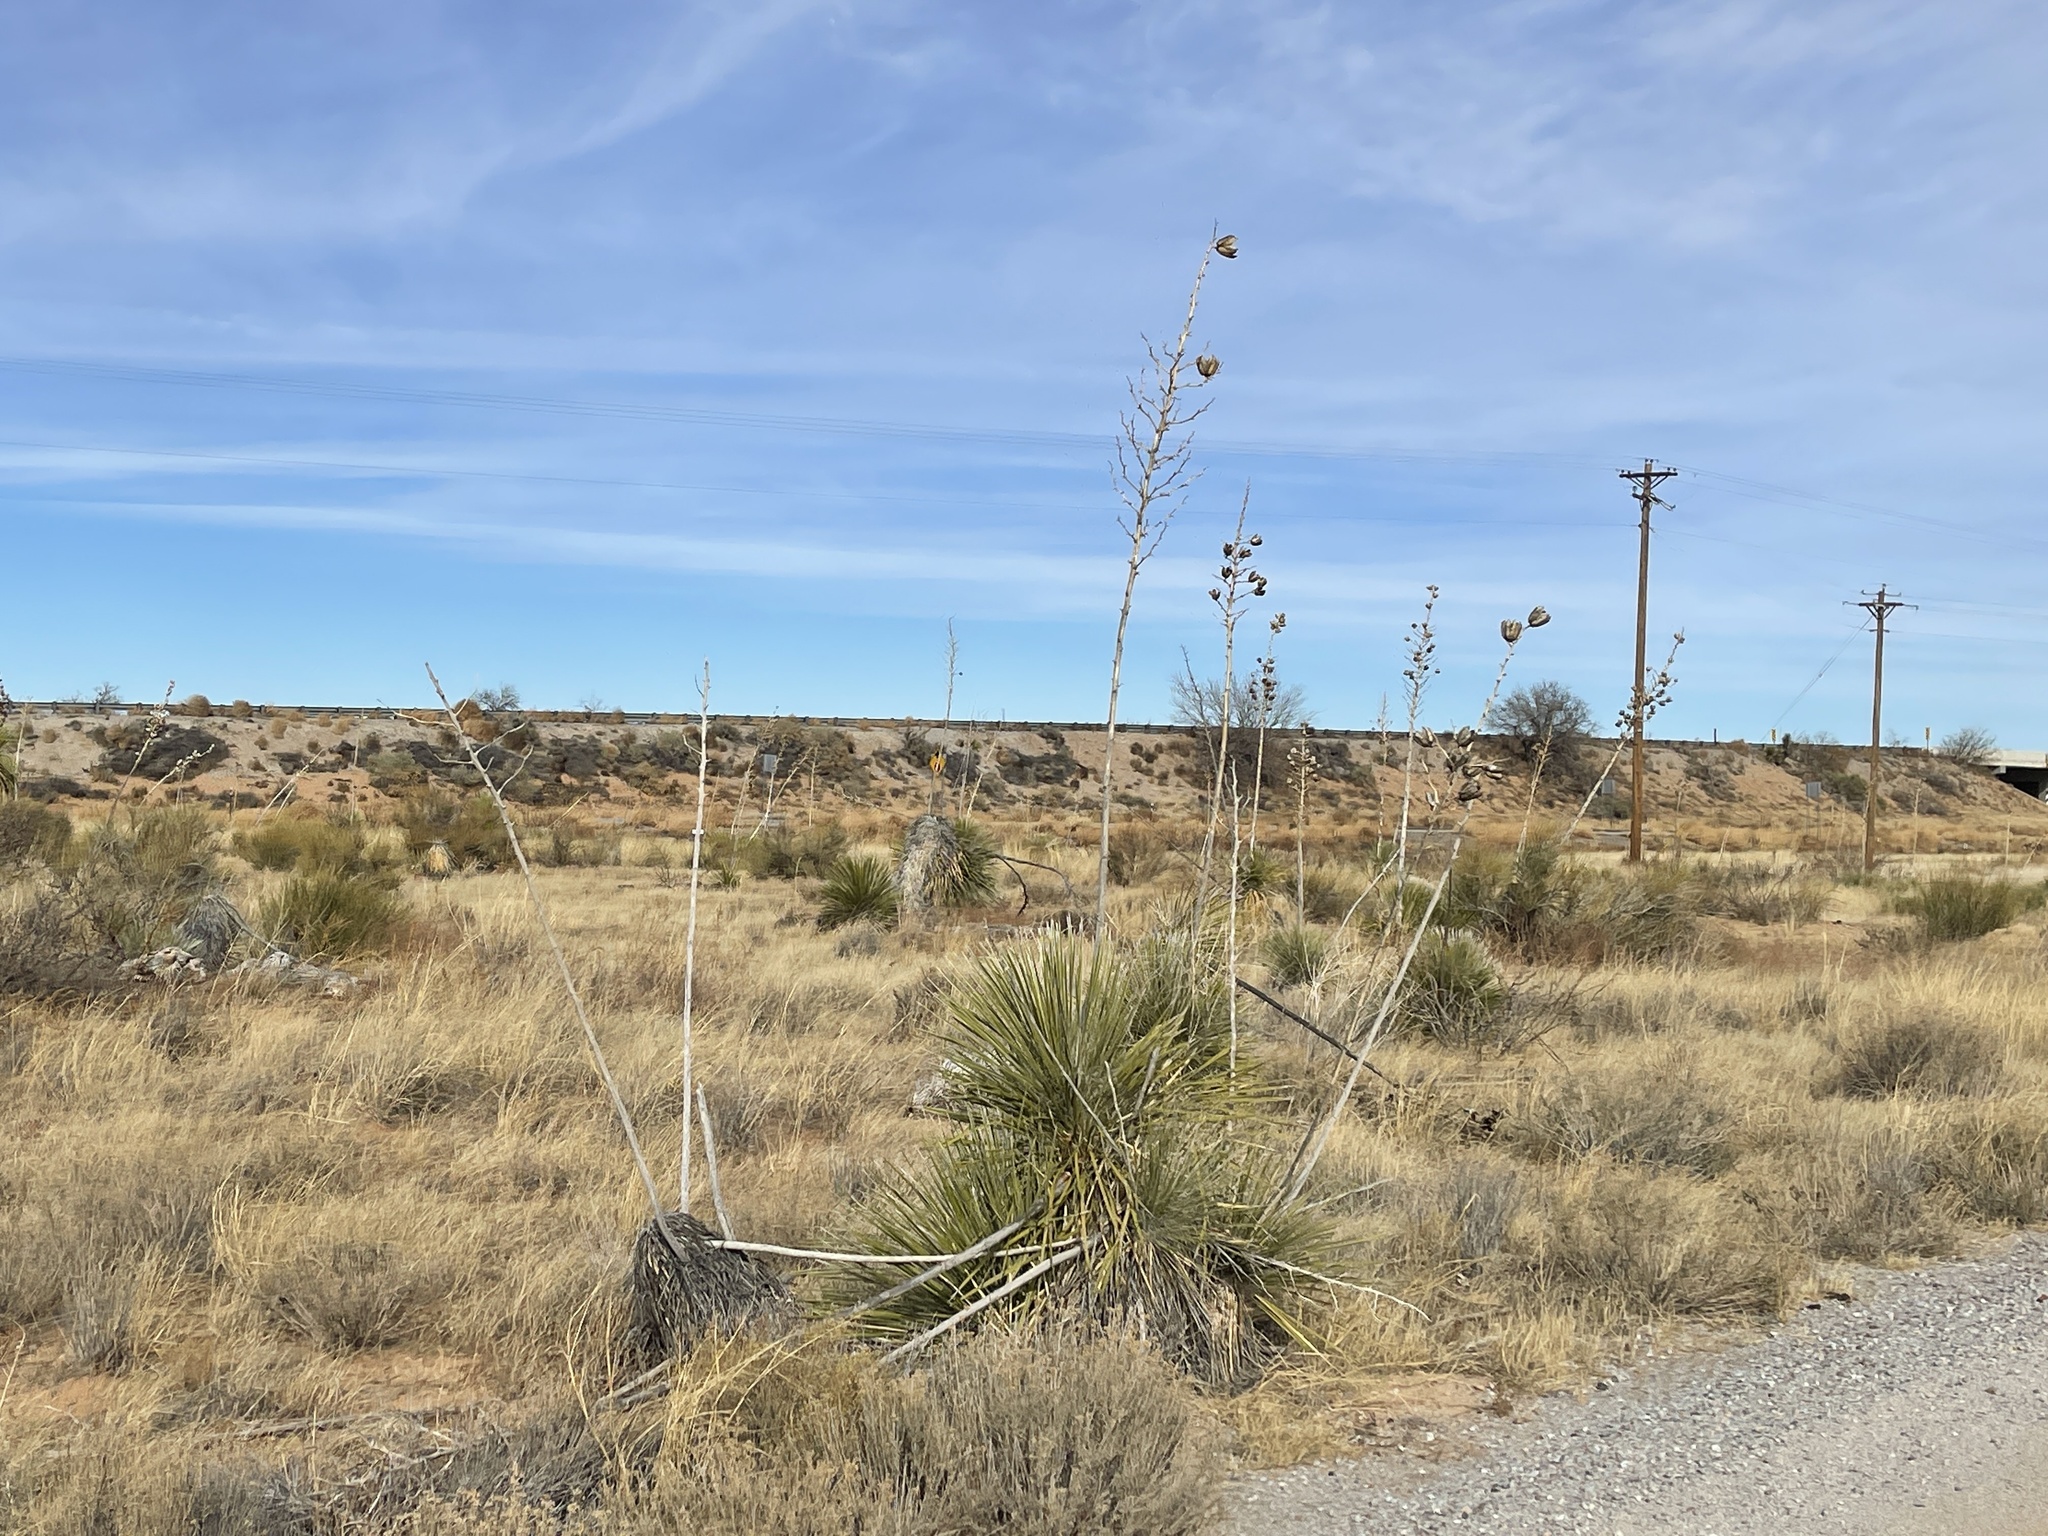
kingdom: Plantae
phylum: Tracheophyta
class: Liliopsida
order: Asparagales
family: Asparagaceae
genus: Yucca
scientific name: Yucca elata
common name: Palmella
